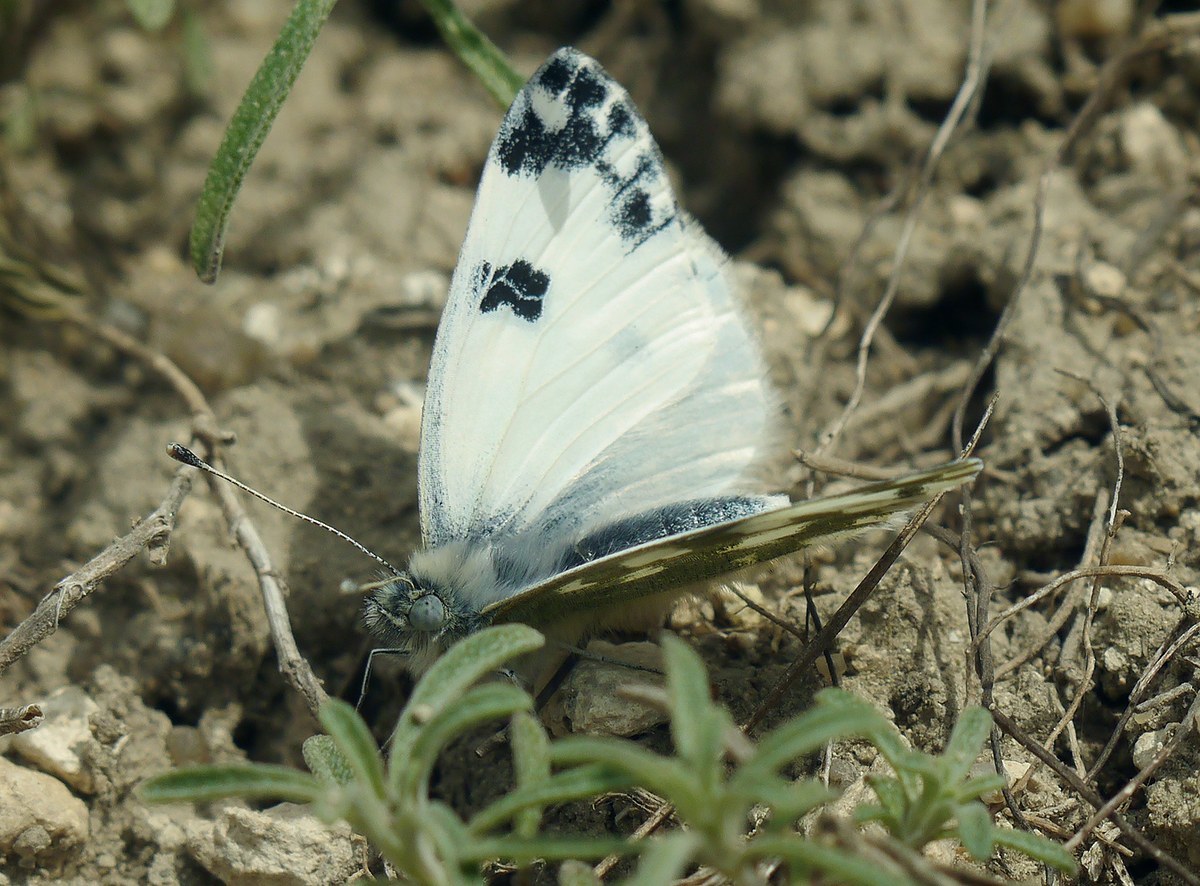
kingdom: Animalia
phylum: Arthropoda
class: Insecta
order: Lepidoptera
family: Pieridae
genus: Pontia
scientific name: Pontia edusa
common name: Eastern bath white
